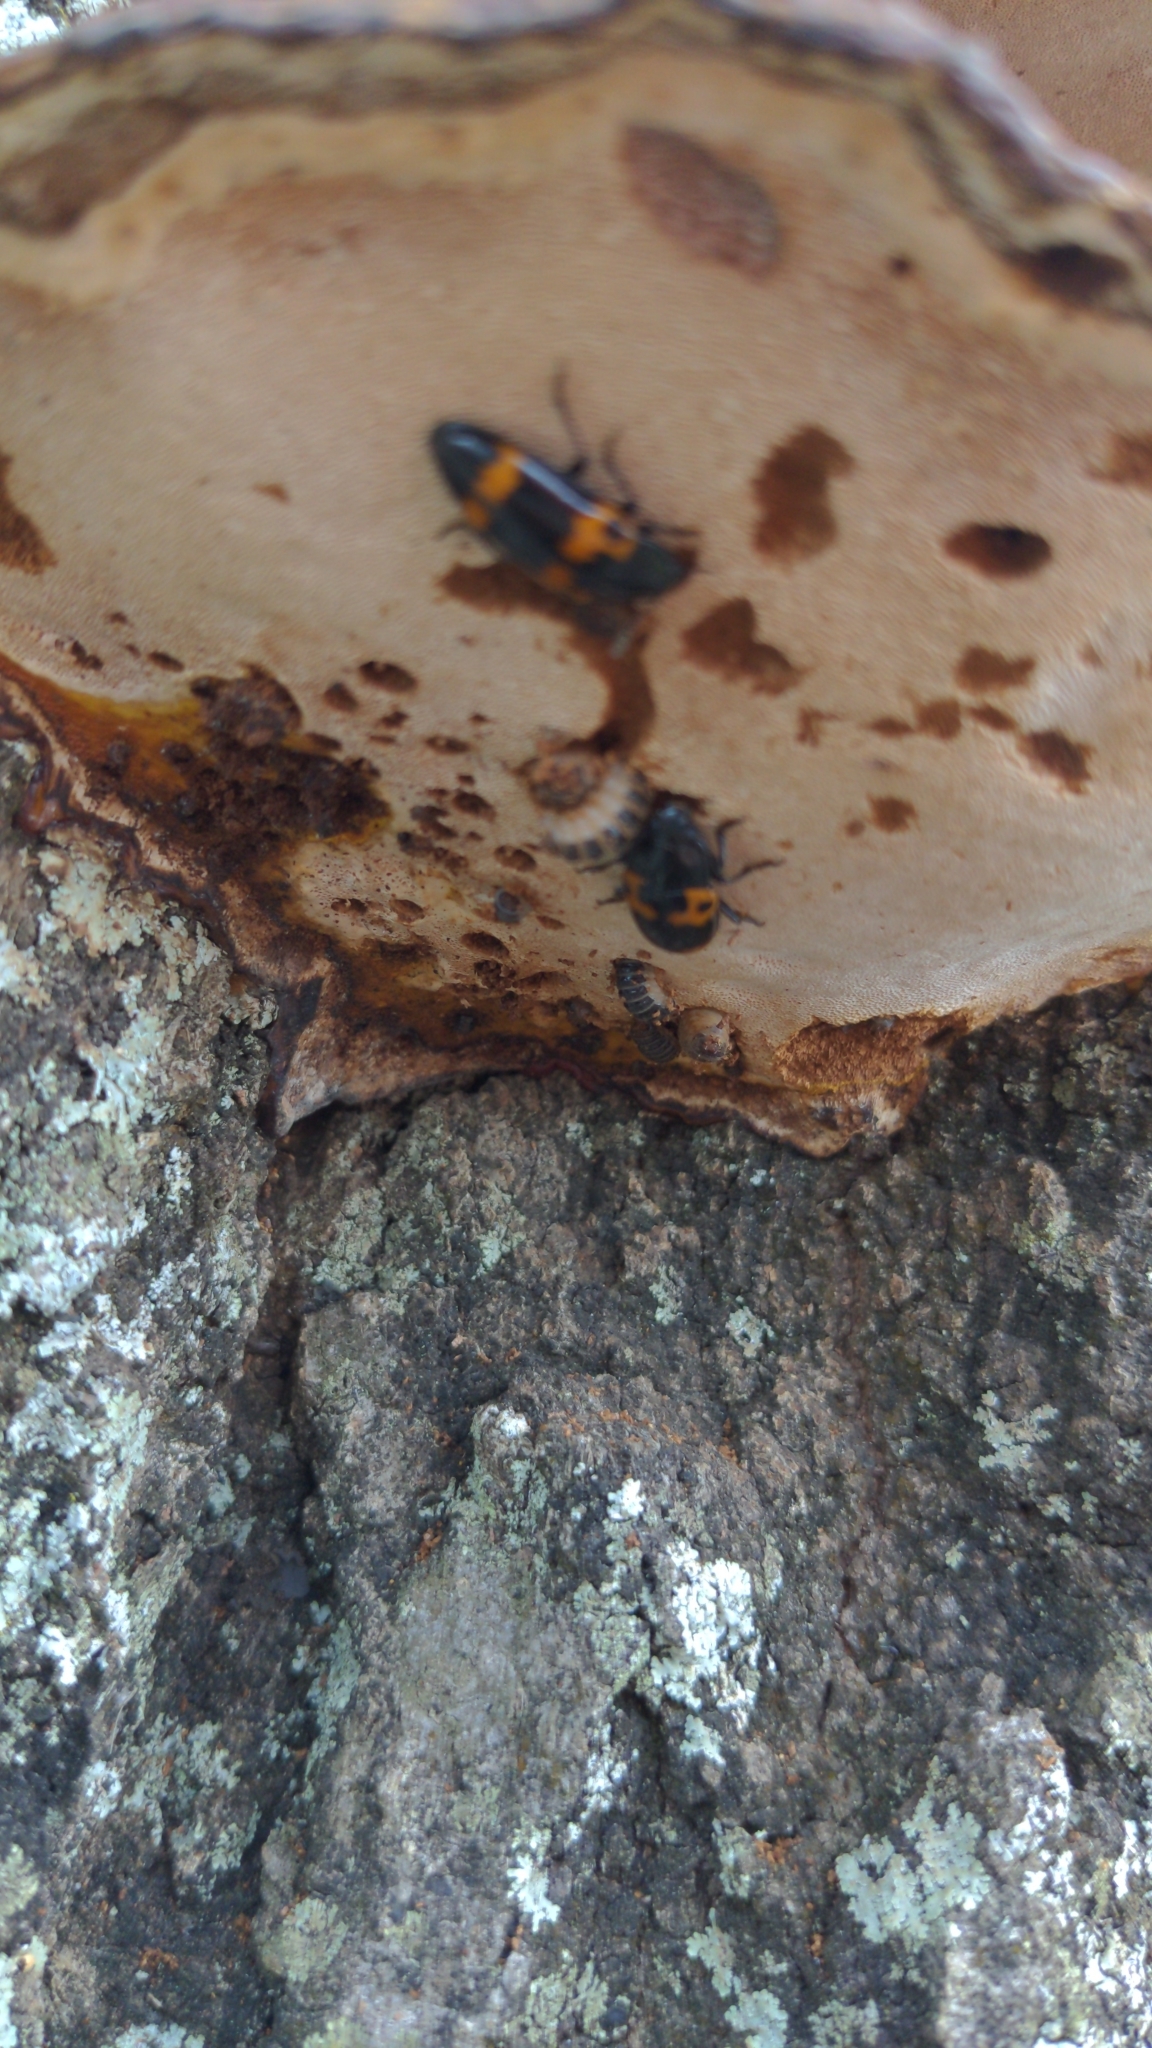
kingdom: Animalia
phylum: Arthropoda
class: Insecta
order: Coleoptera
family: Erotylidae
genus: Megalodacne
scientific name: Megalodacne fasciata
